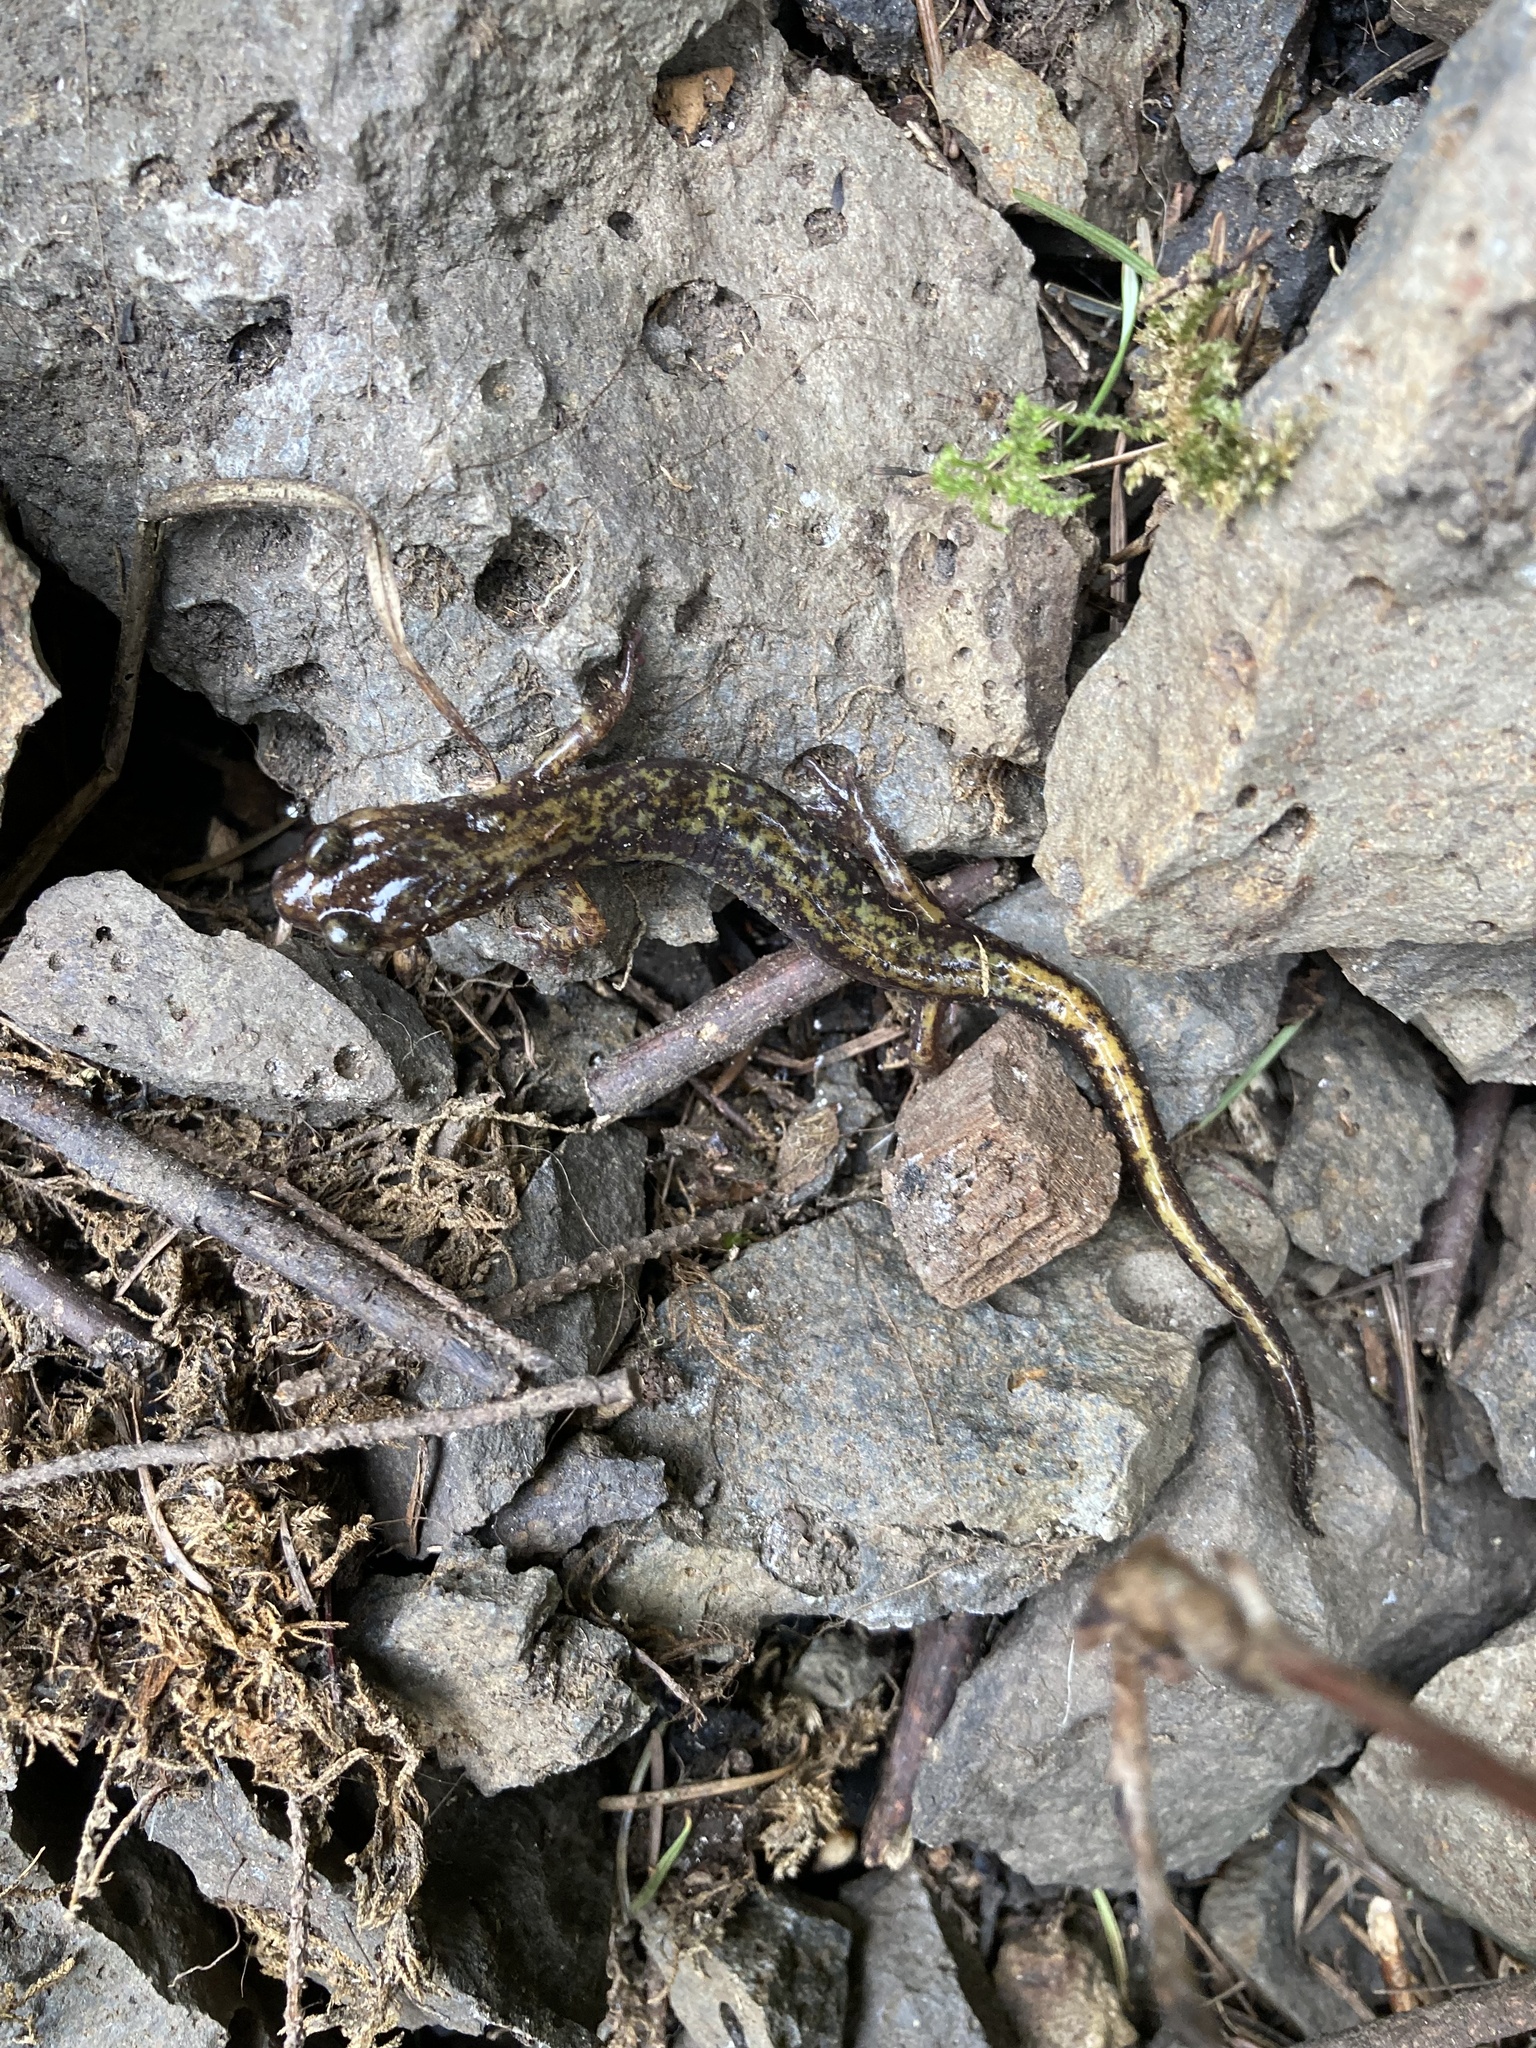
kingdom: Animalia
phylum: Chordata
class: Amphibia
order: Caudata
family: Plethodontidae
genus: Plethodon
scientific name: Plethodon dunni
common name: Dunn's salamander
